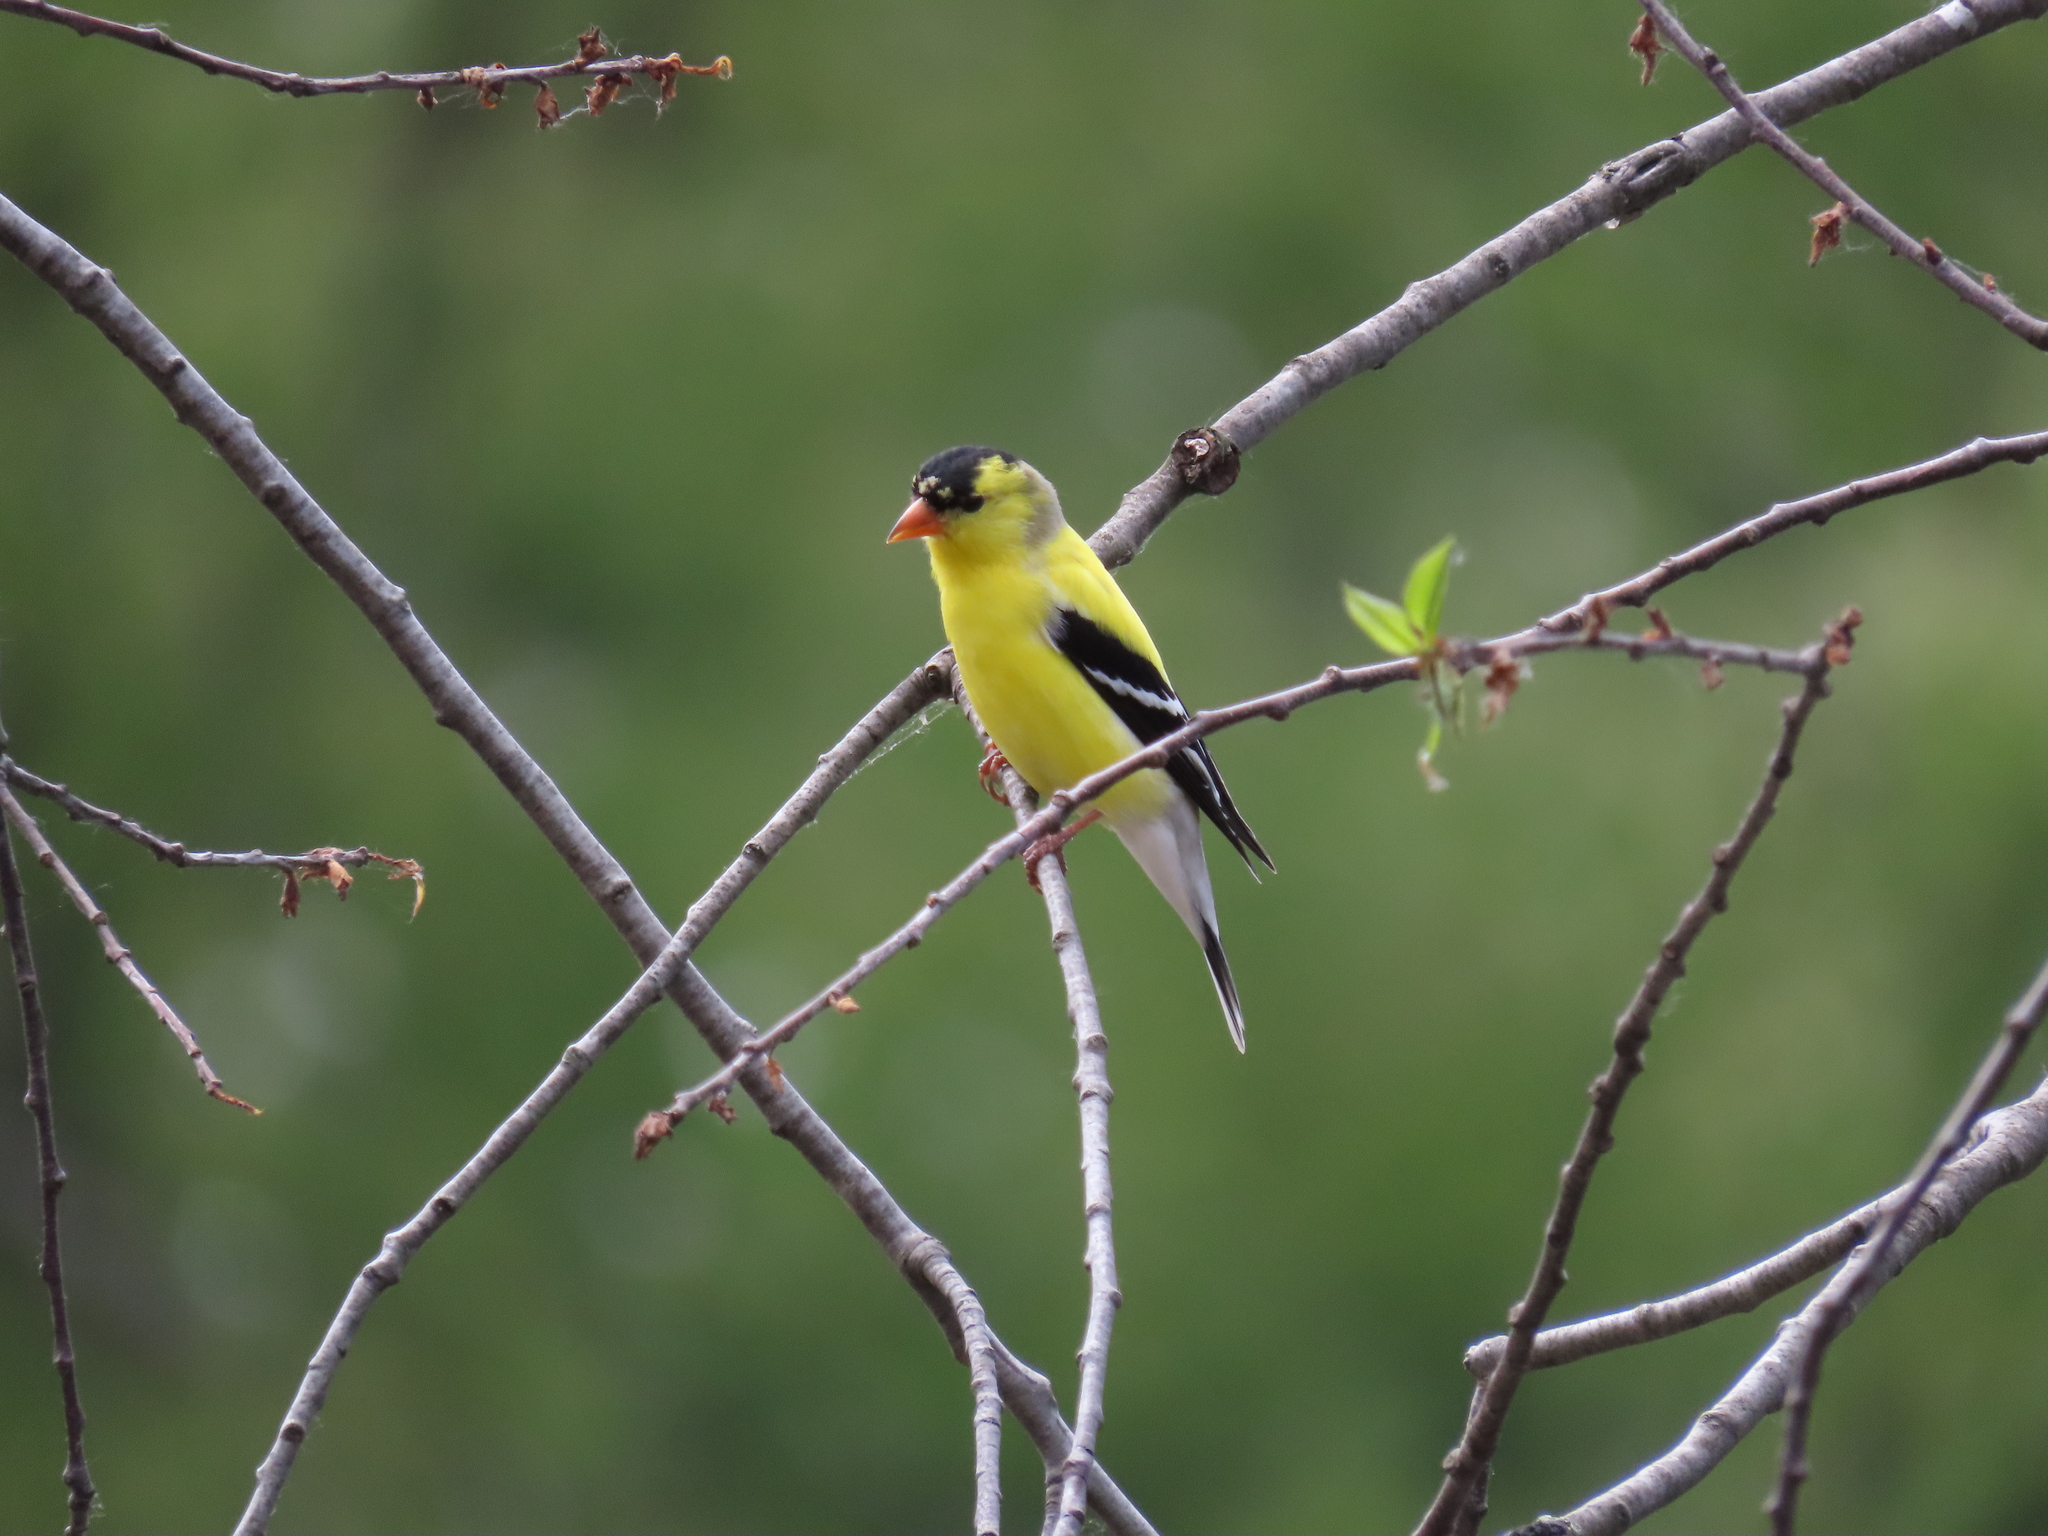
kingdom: Animalia
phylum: Chordata
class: Aves
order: Passeriformes
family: Fringillidae
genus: Spinus
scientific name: Spinus tristis
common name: American goldfinch
